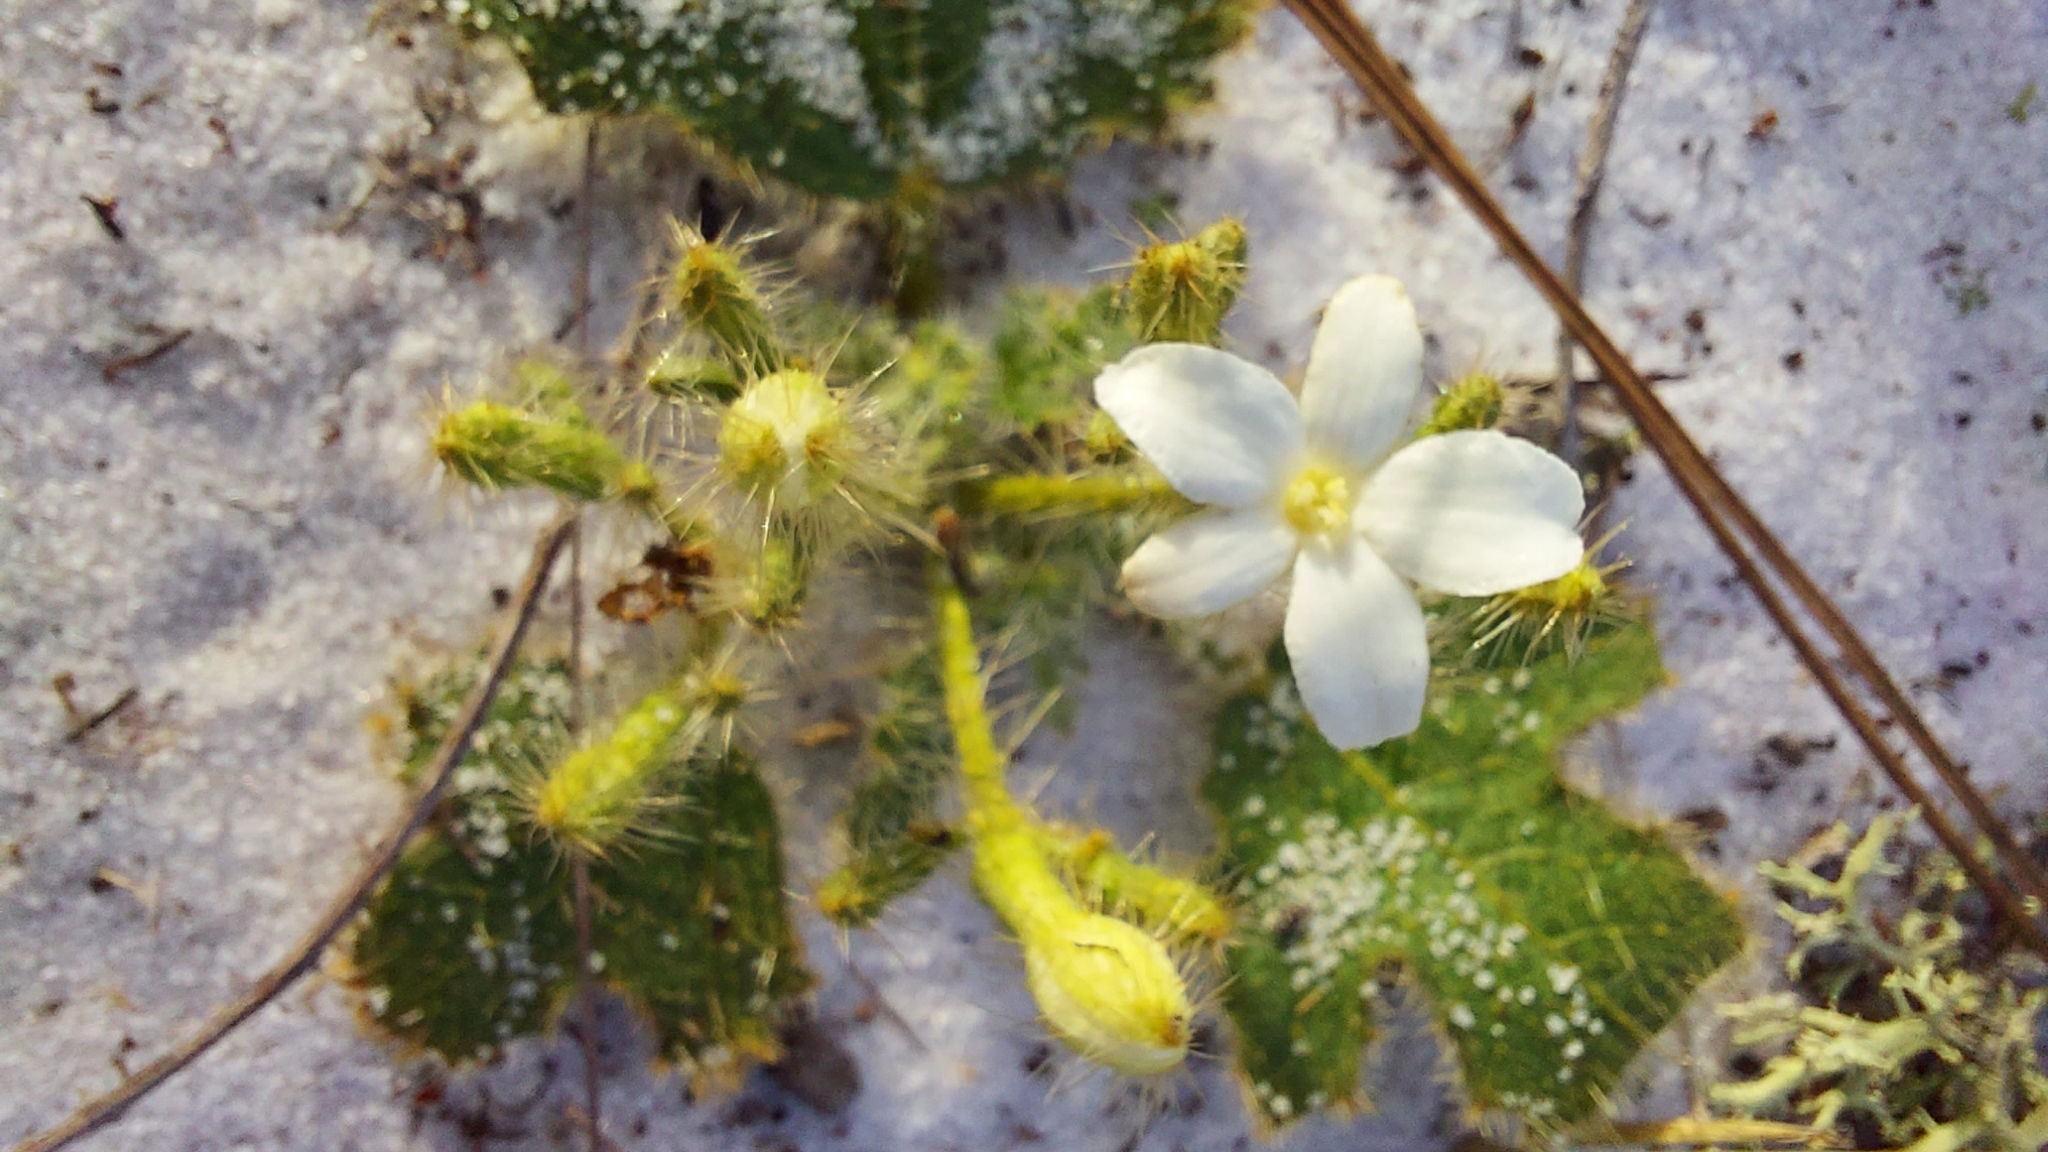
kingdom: Plantae
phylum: Tracheophyta
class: Magnoliopsida
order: Malpighiales
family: Euphorbiaceae
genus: Cnidoscolus
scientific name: Cnidoscolus stimulosus
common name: Bull-nettle
